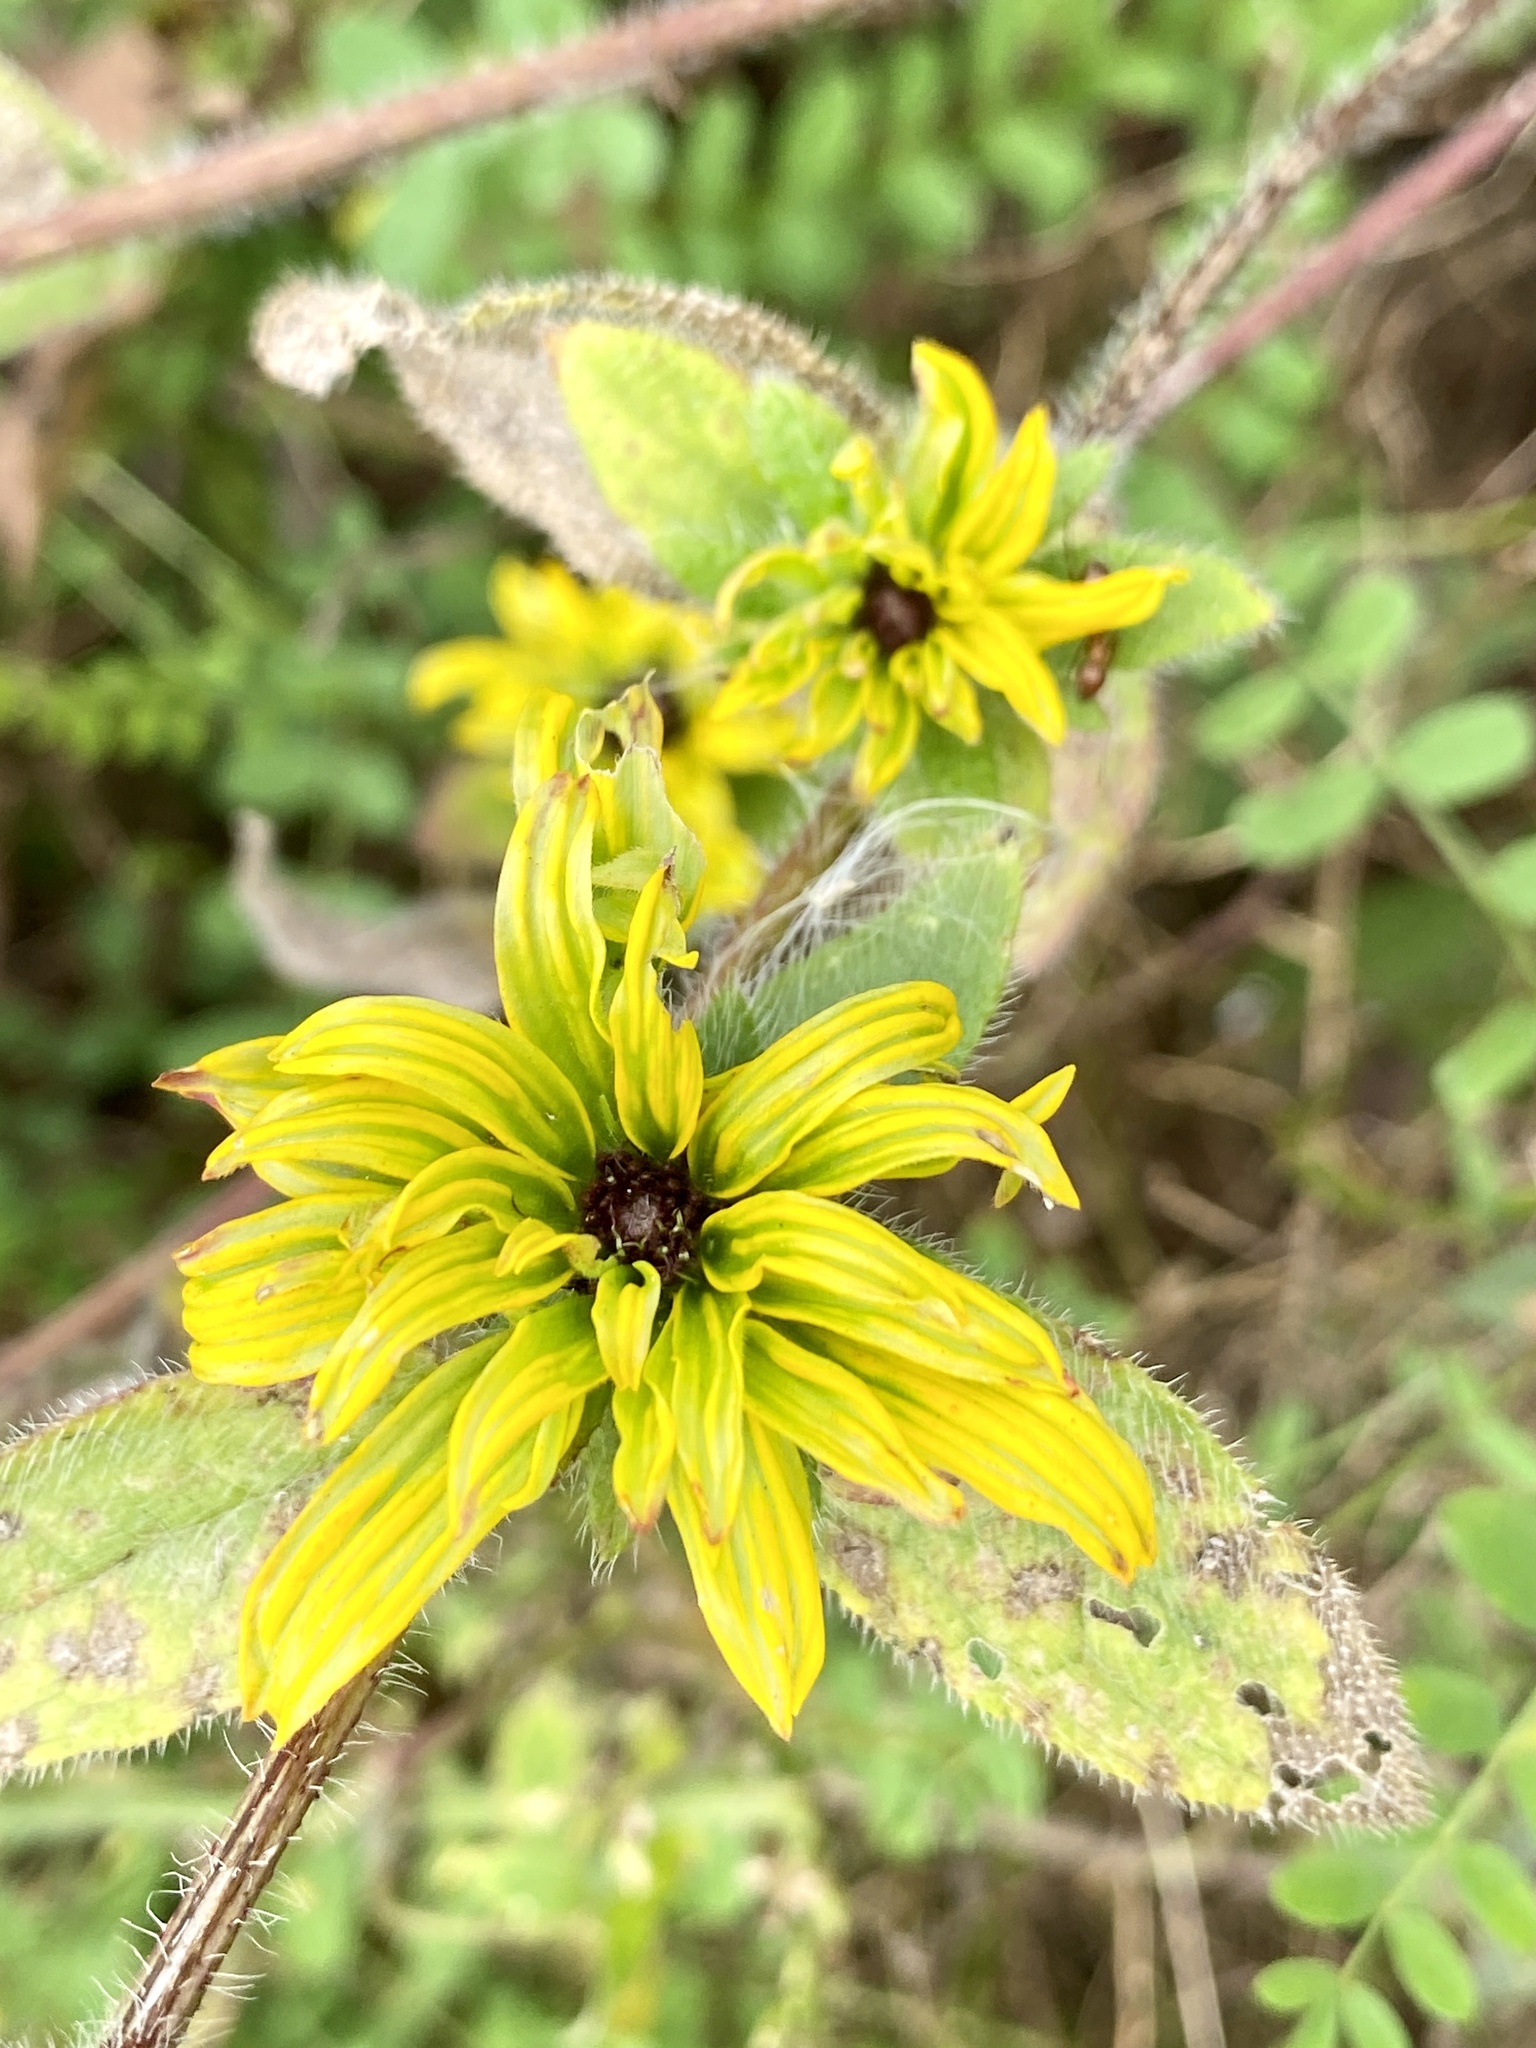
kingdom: Bacteria
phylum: Firmicutes
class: Bacilli
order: Acholeplasmatales
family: Acholeplasmataceae
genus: Phytoplasma
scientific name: Phytoplasma
